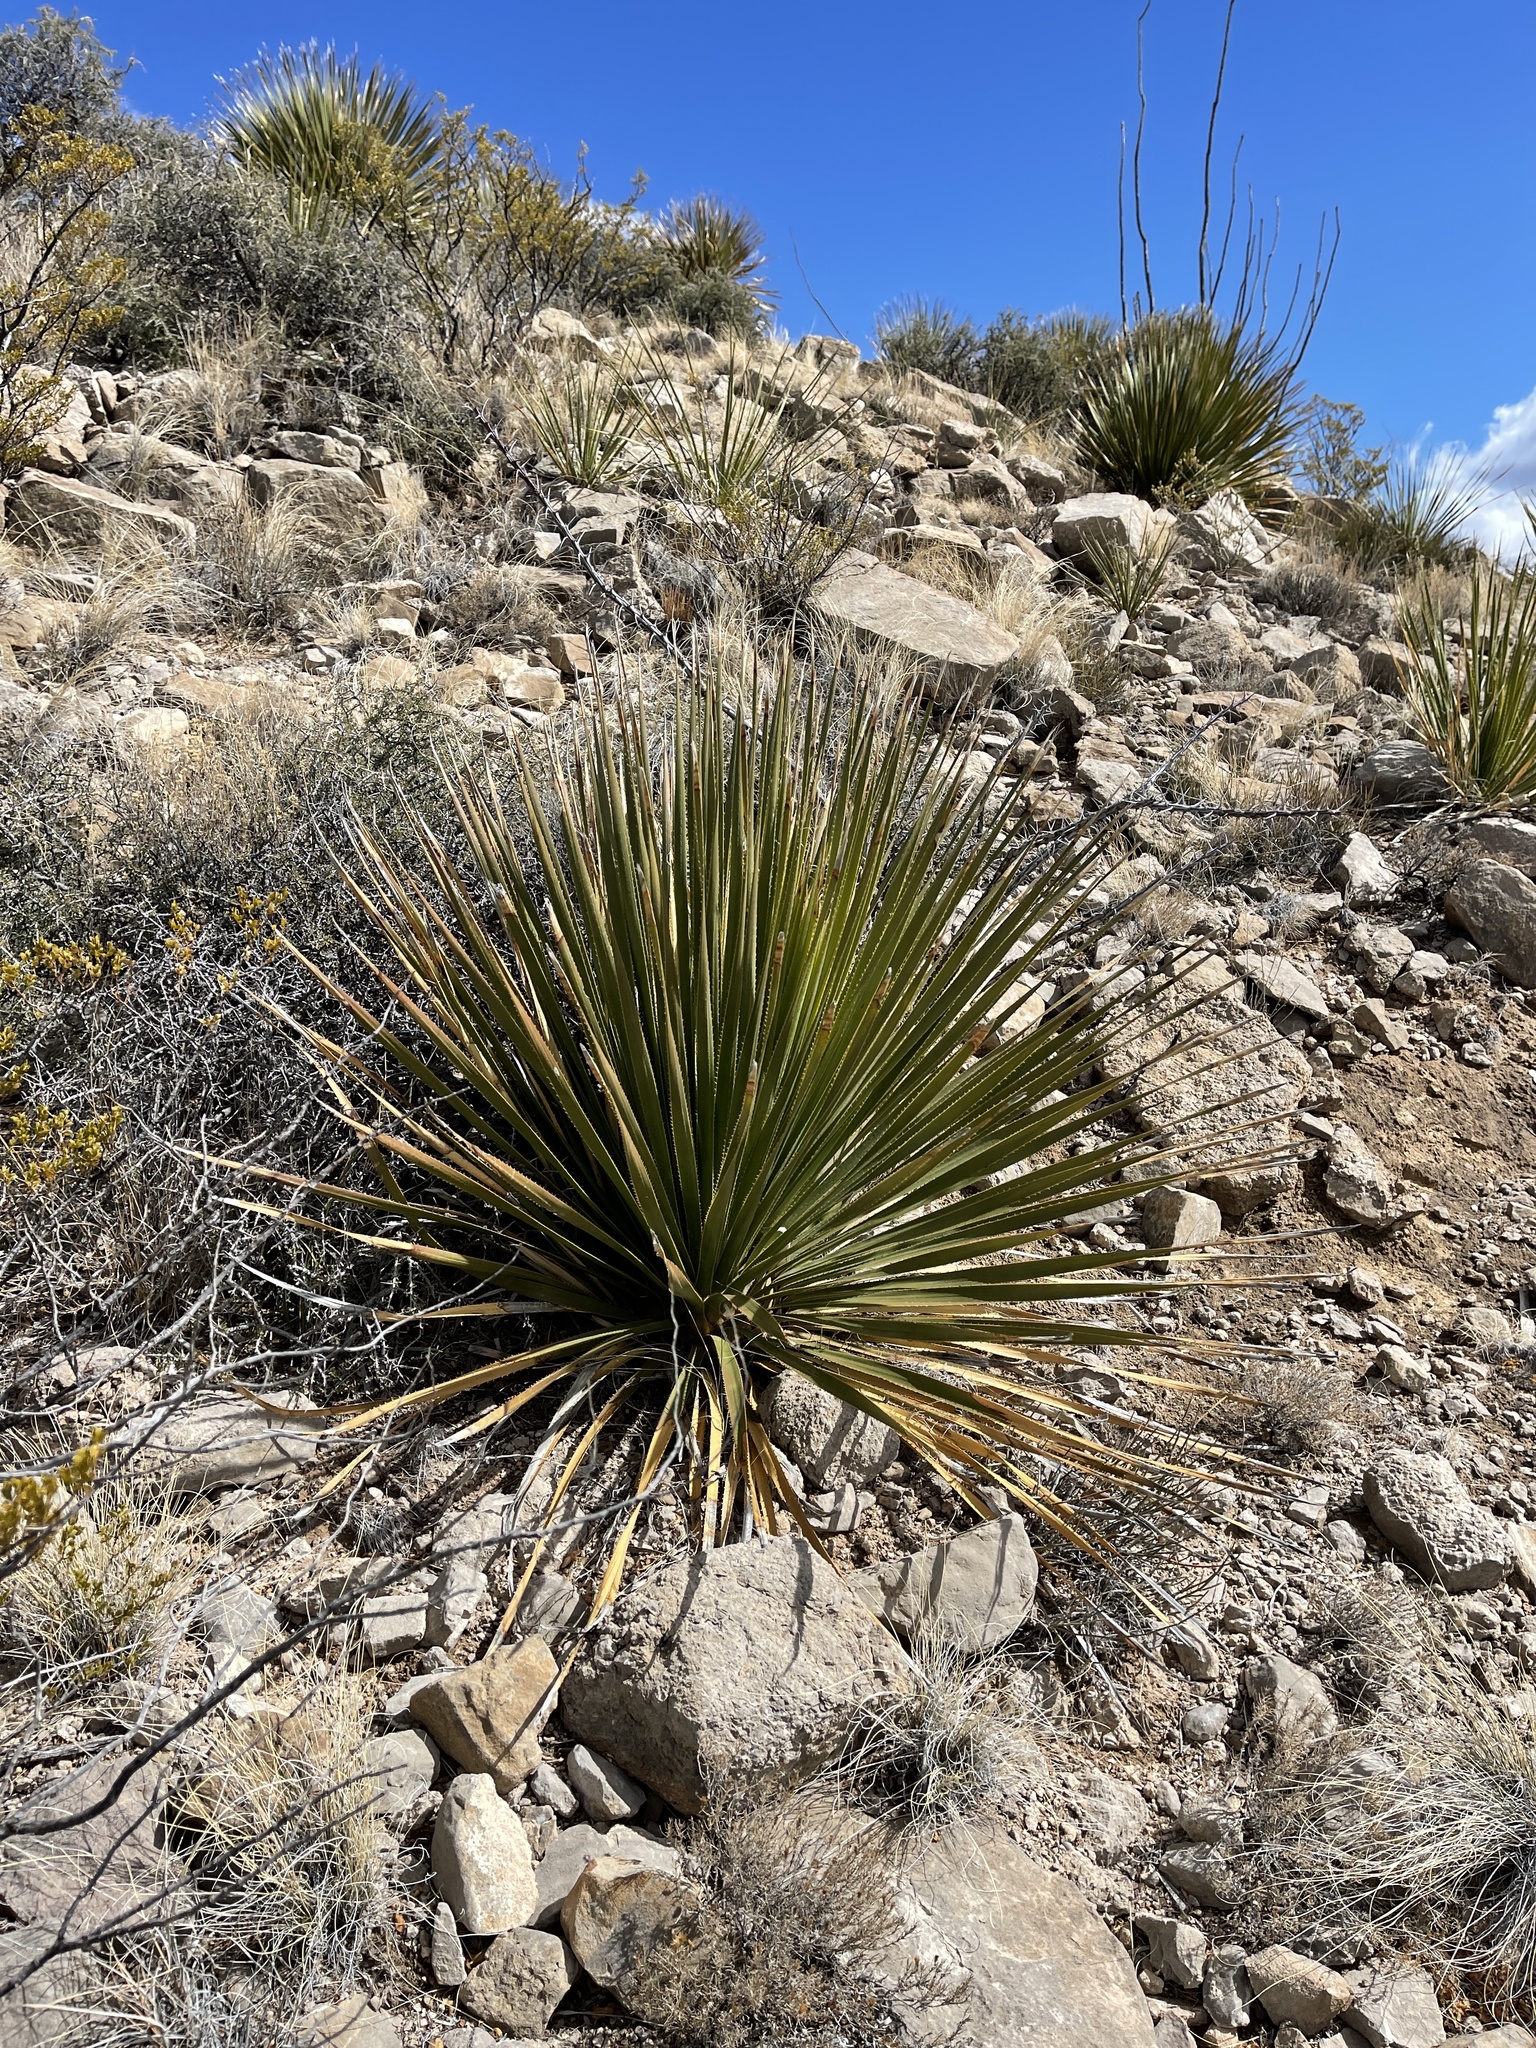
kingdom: Plantae
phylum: Tracheophyta
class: Liliopsida
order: Asparagales
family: Asparagaceae
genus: Dasylirion
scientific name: Dasylirion wheeleri
